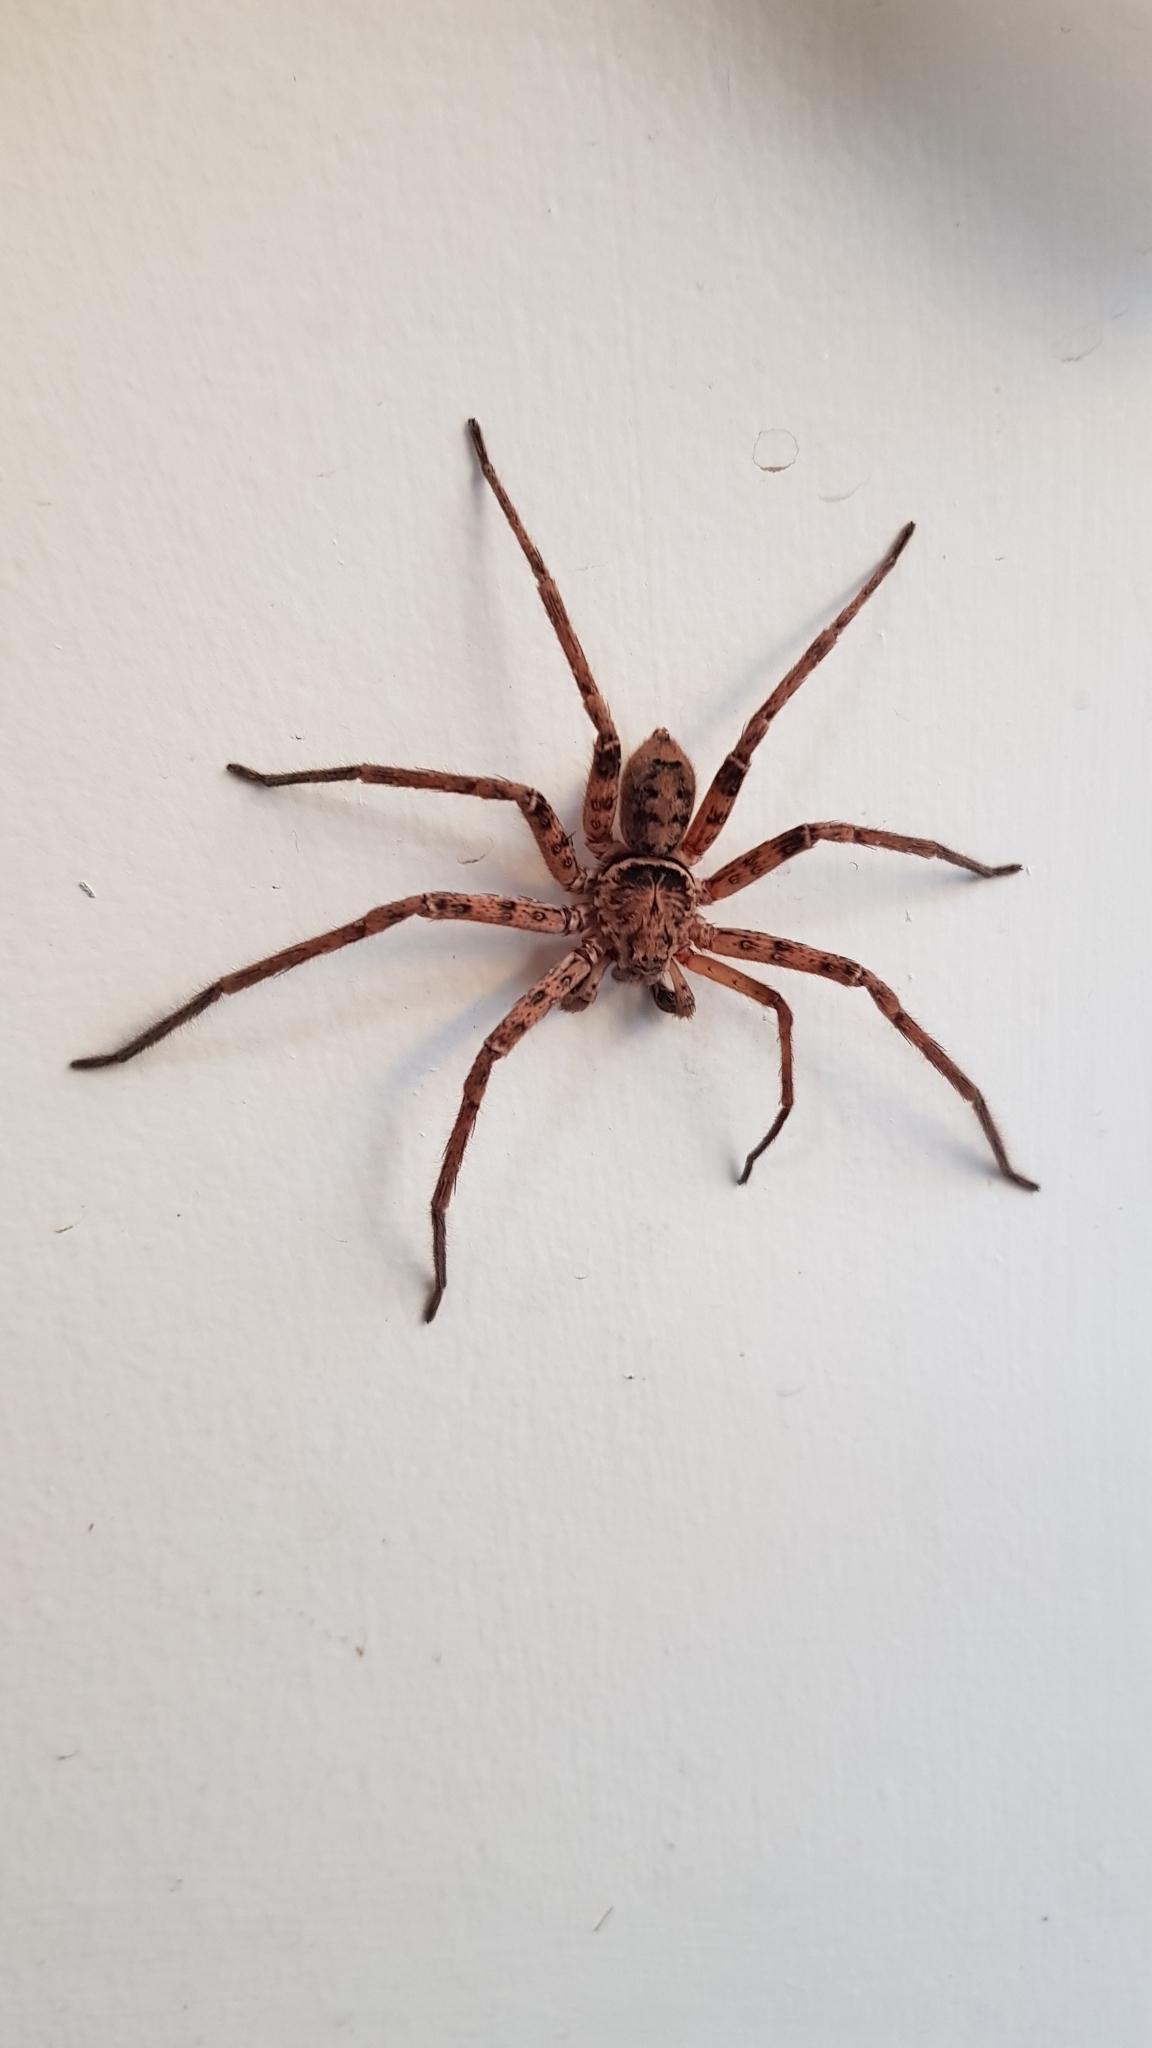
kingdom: Animalia
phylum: Arthropoda
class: Arachnida
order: Araneae
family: Sparassidae
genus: Heteropoda
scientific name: Heteropoda jugulans
